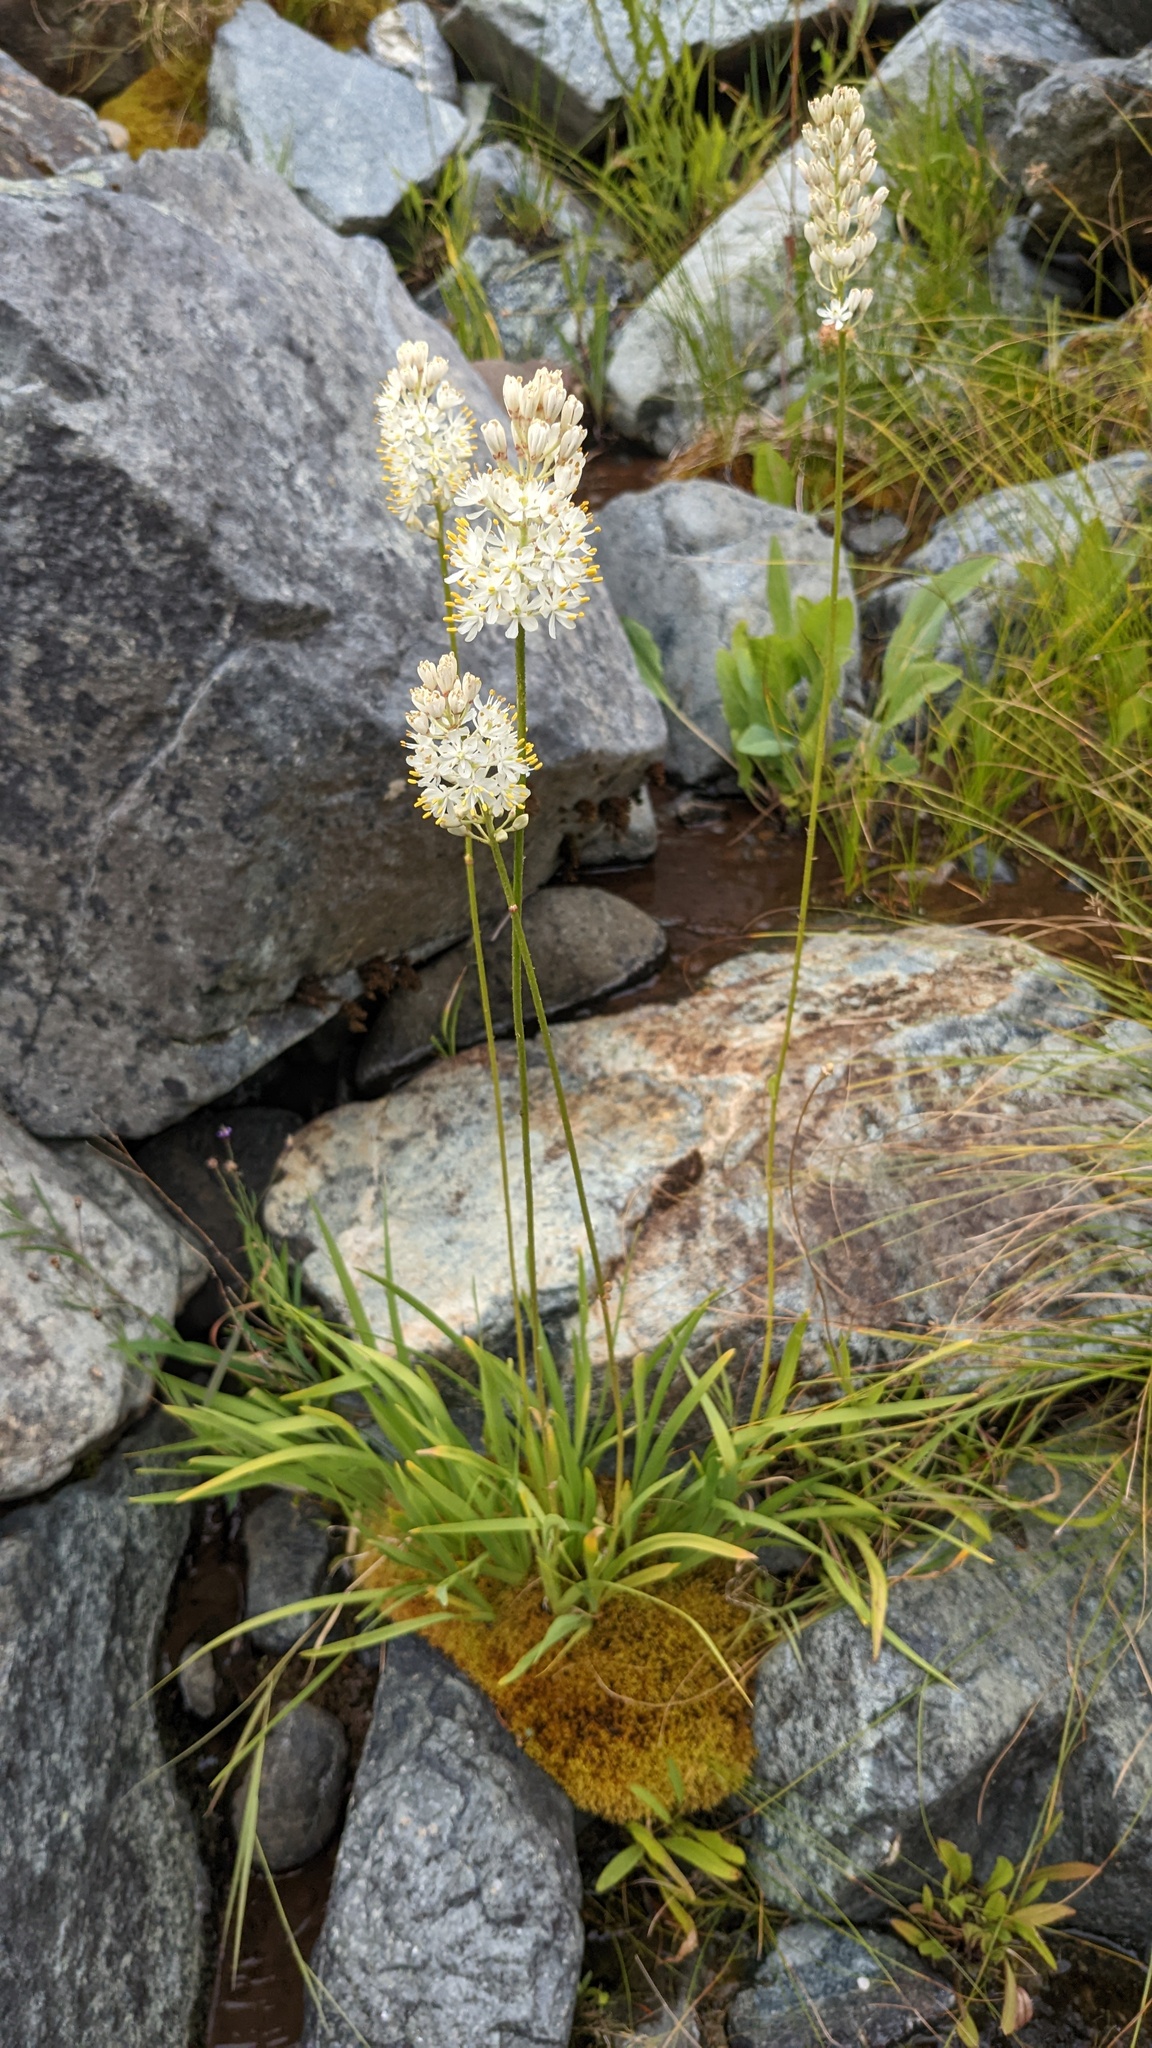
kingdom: Plantae
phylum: Tracheophyta
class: Liliopsida
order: Alismatales
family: Tofieldiaceae
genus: Triantha
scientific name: Triantha occidentalis
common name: Western false asphodel
